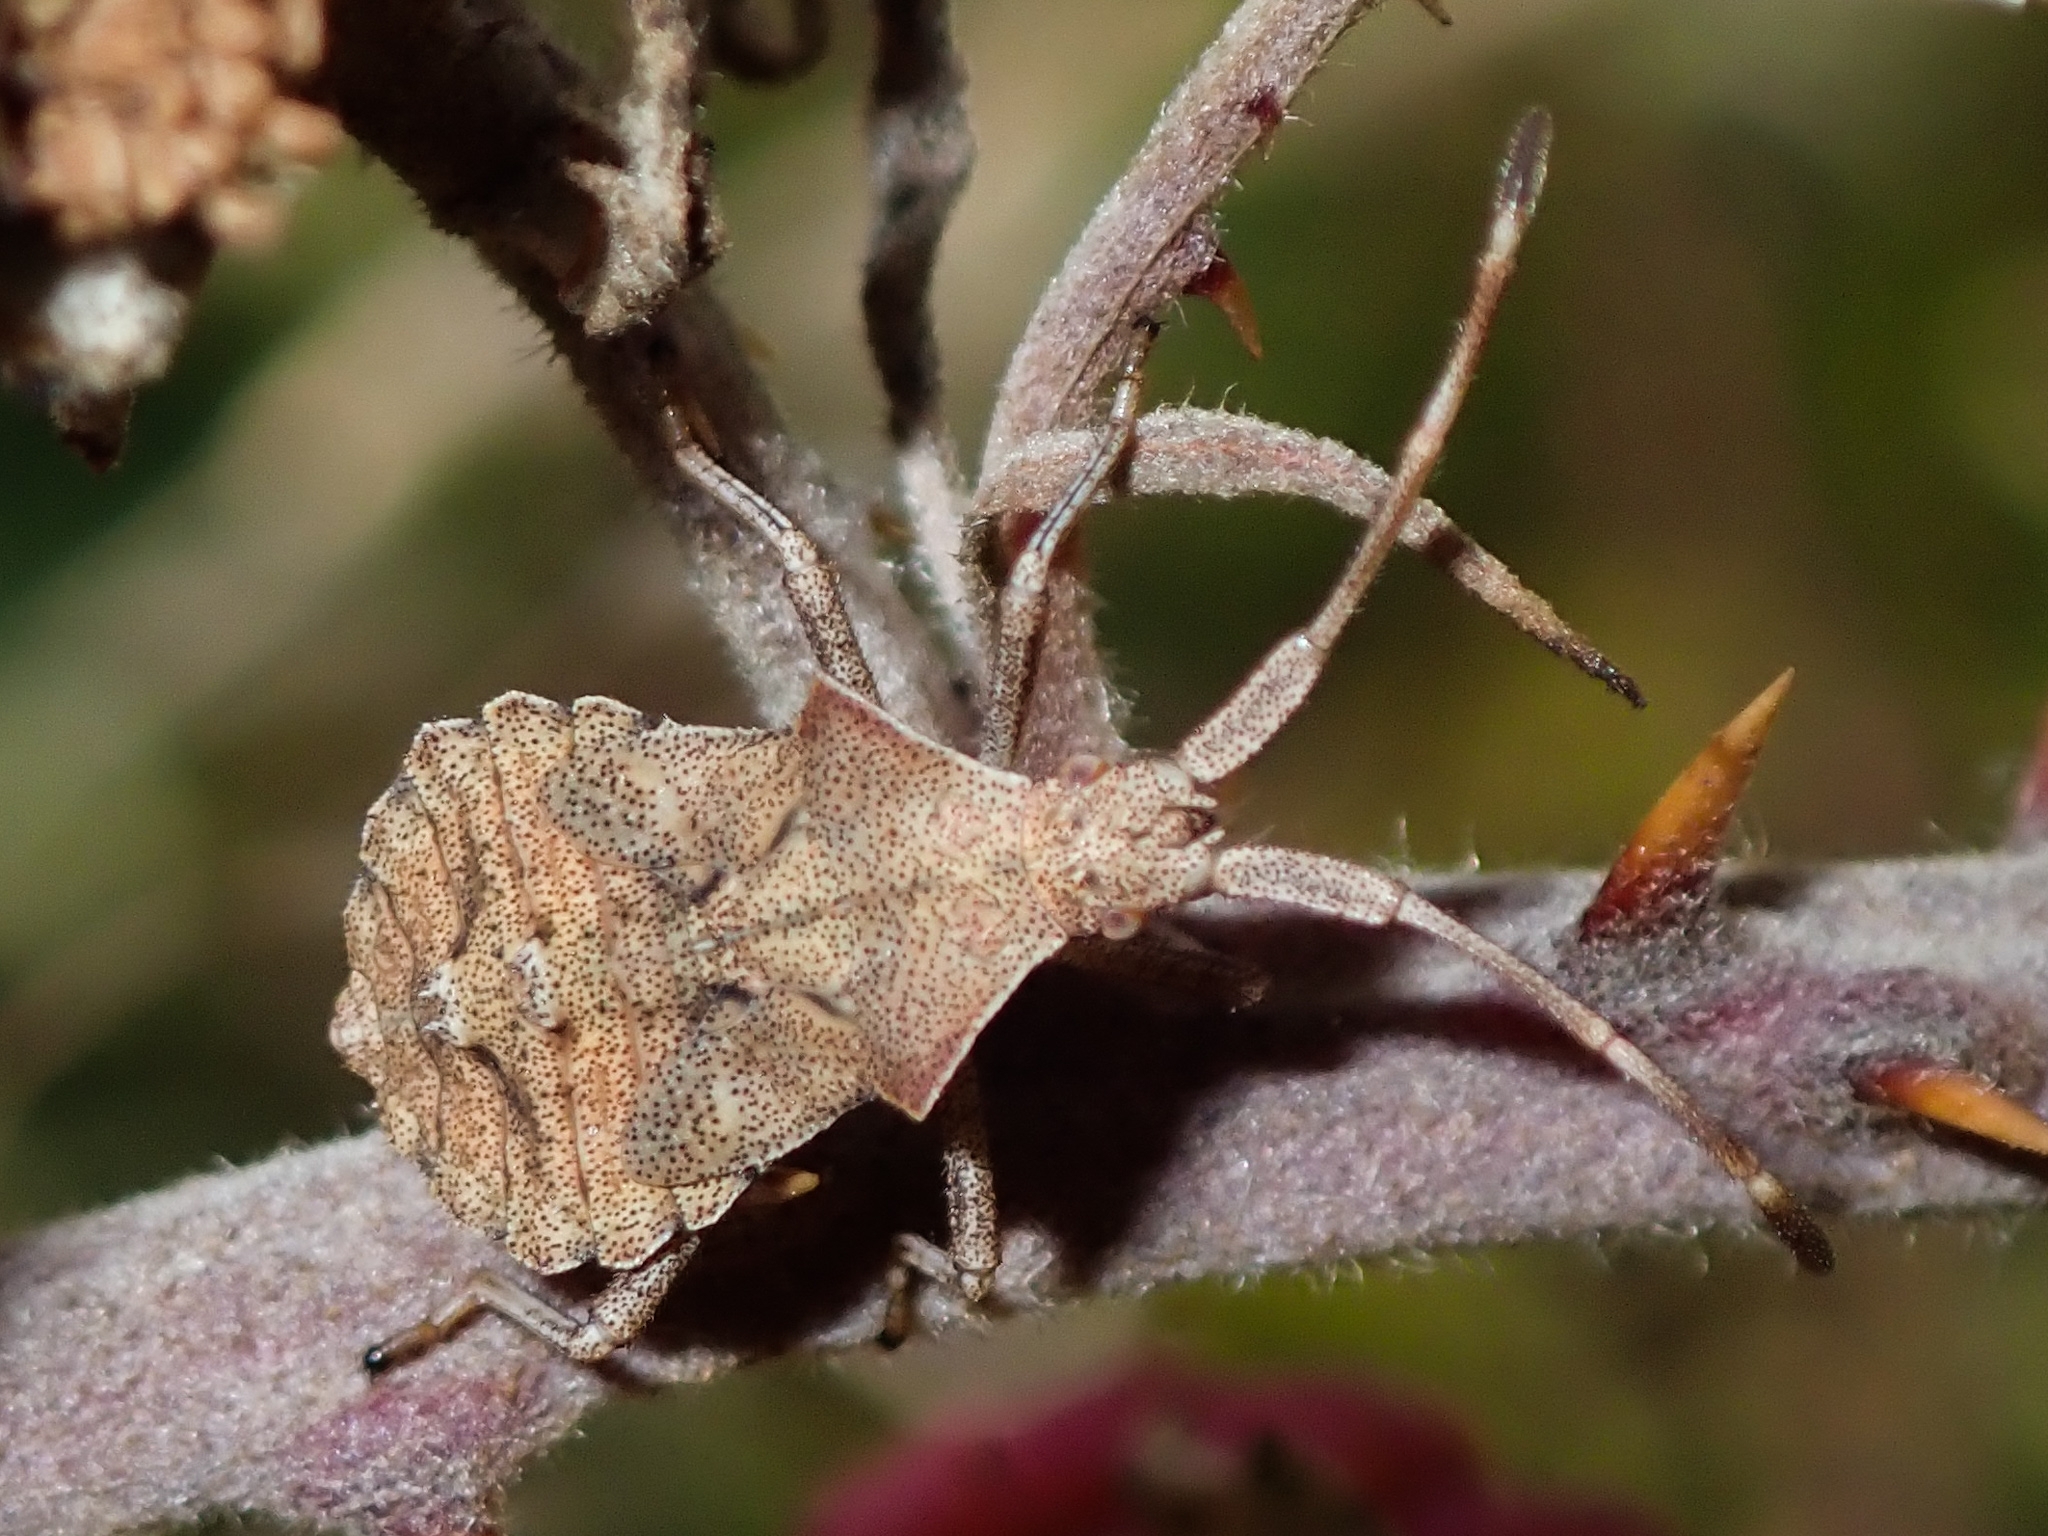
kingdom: Animalia
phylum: Arthropoda
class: Insecta
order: Hemiptera
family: Coreidae
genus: Coreus
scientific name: Coreus marginatus
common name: Dock bug
